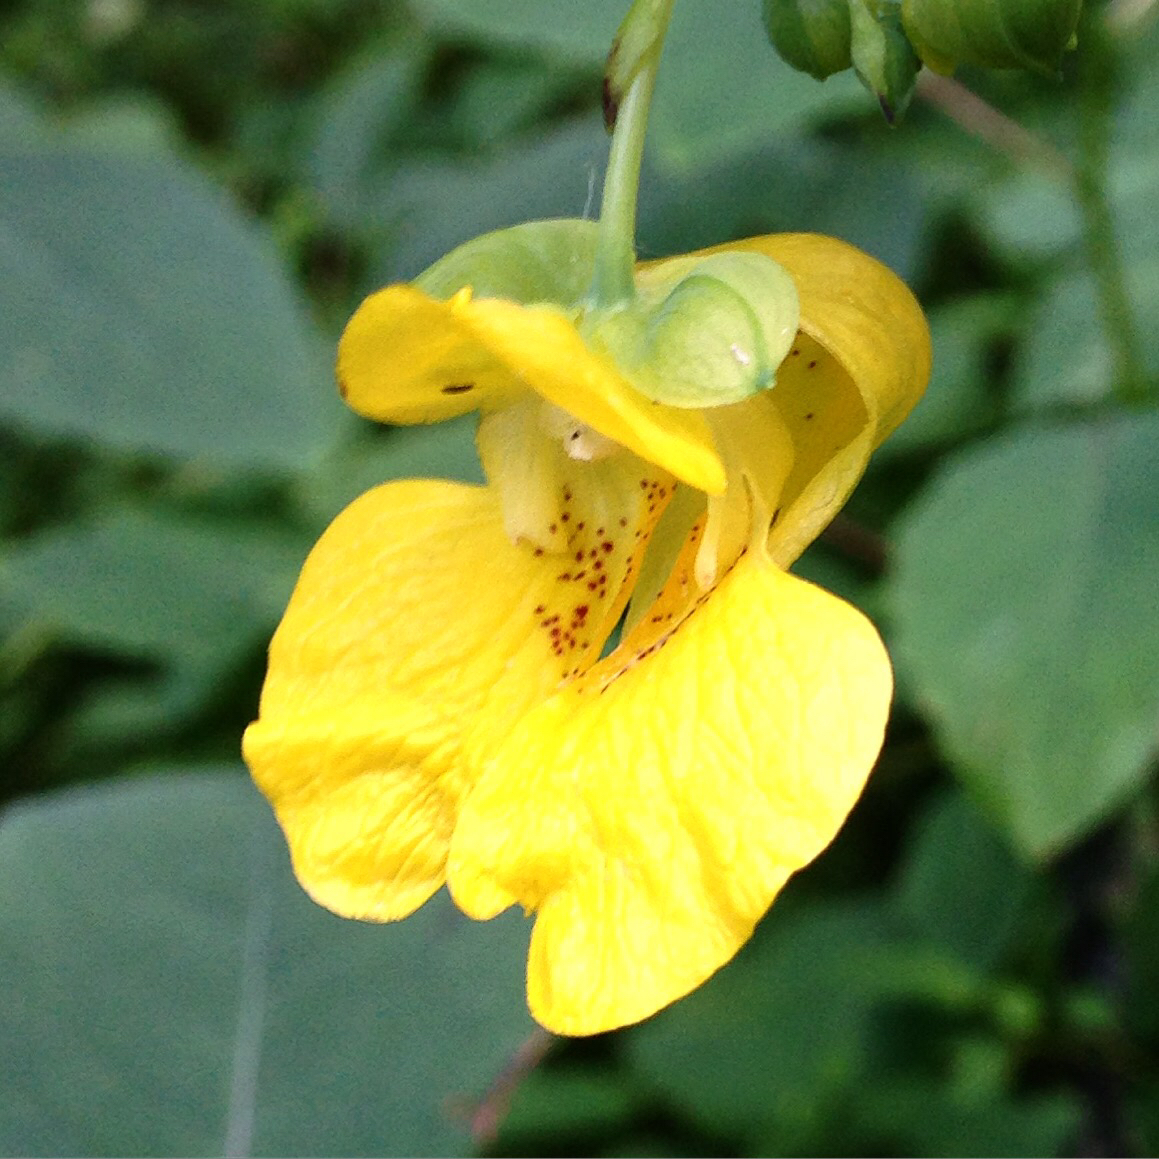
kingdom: Plantae
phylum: Tracheophyta
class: Magnoliopsida
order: Ericales
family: Balsaminaceae
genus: Impatiens
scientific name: Impatiens pallida
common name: Pale snapweed
